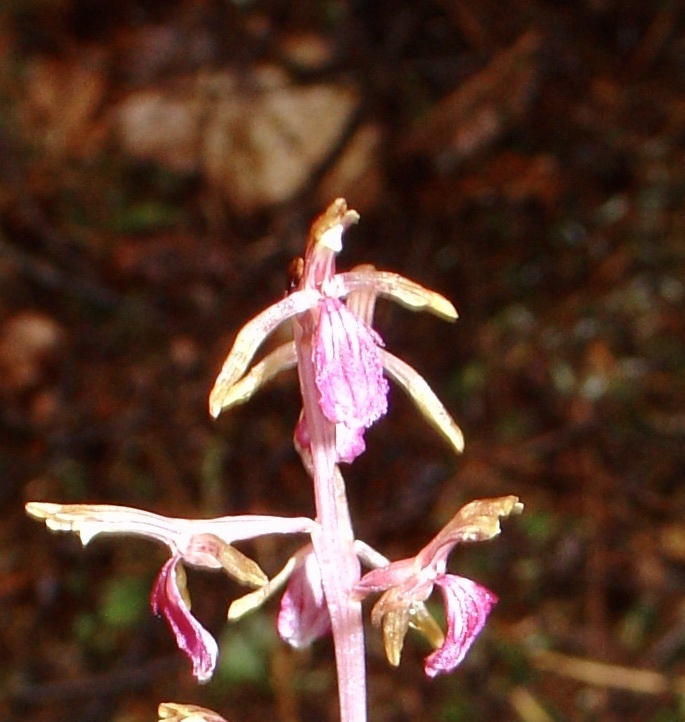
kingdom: Plantae
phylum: Tracheophyta
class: Liliopsida
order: Asparagales
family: Orchidaceae
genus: Corallorhiza
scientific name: Corallorhiza mertensiana
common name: Pacific coralroot
